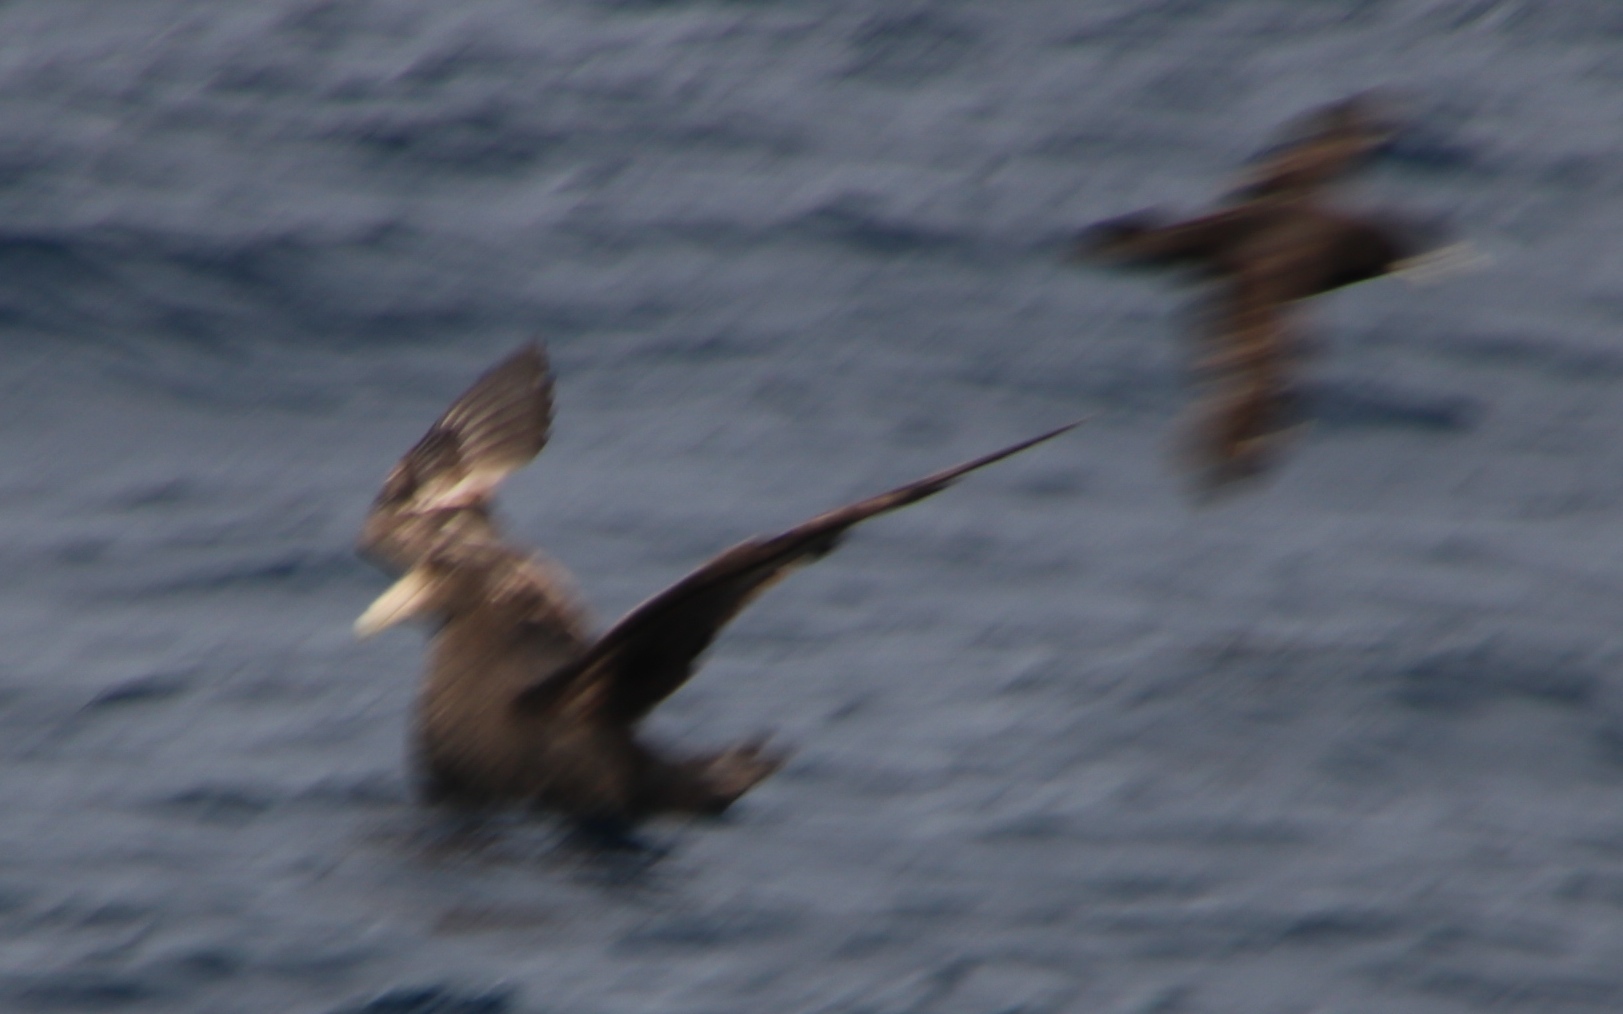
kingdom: Animalia
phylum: Chordata
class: Aves
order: Procellariiformes
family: Procellariidae
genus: Macronectes
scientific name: Macronectes giganteus
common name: Southern giant petrel
